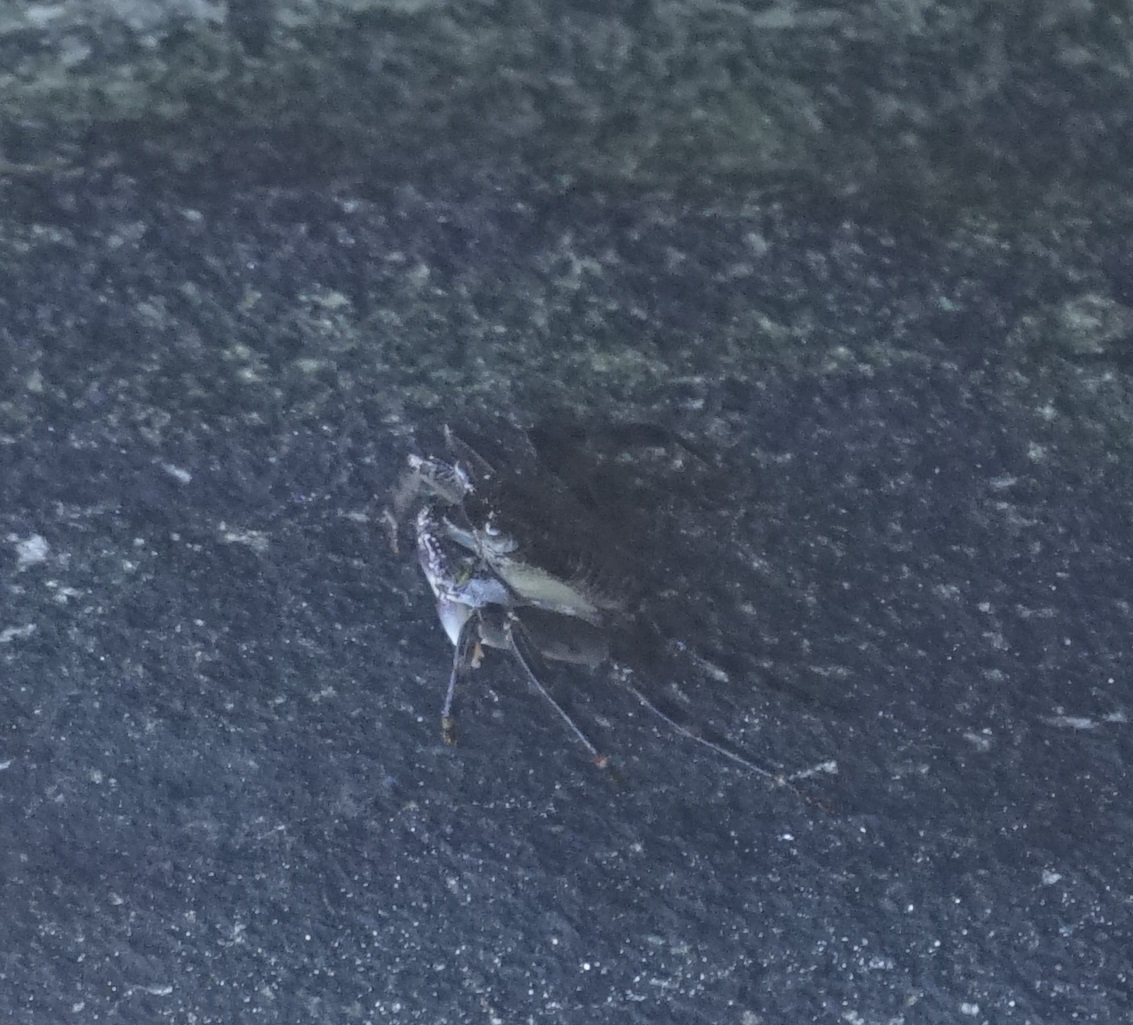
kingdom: Animalia
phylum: Arthropoda
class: Malacostraca
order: Decapoda
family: Grapsidae
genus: Leptograpsus
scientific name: Leptograpsus variegatus
